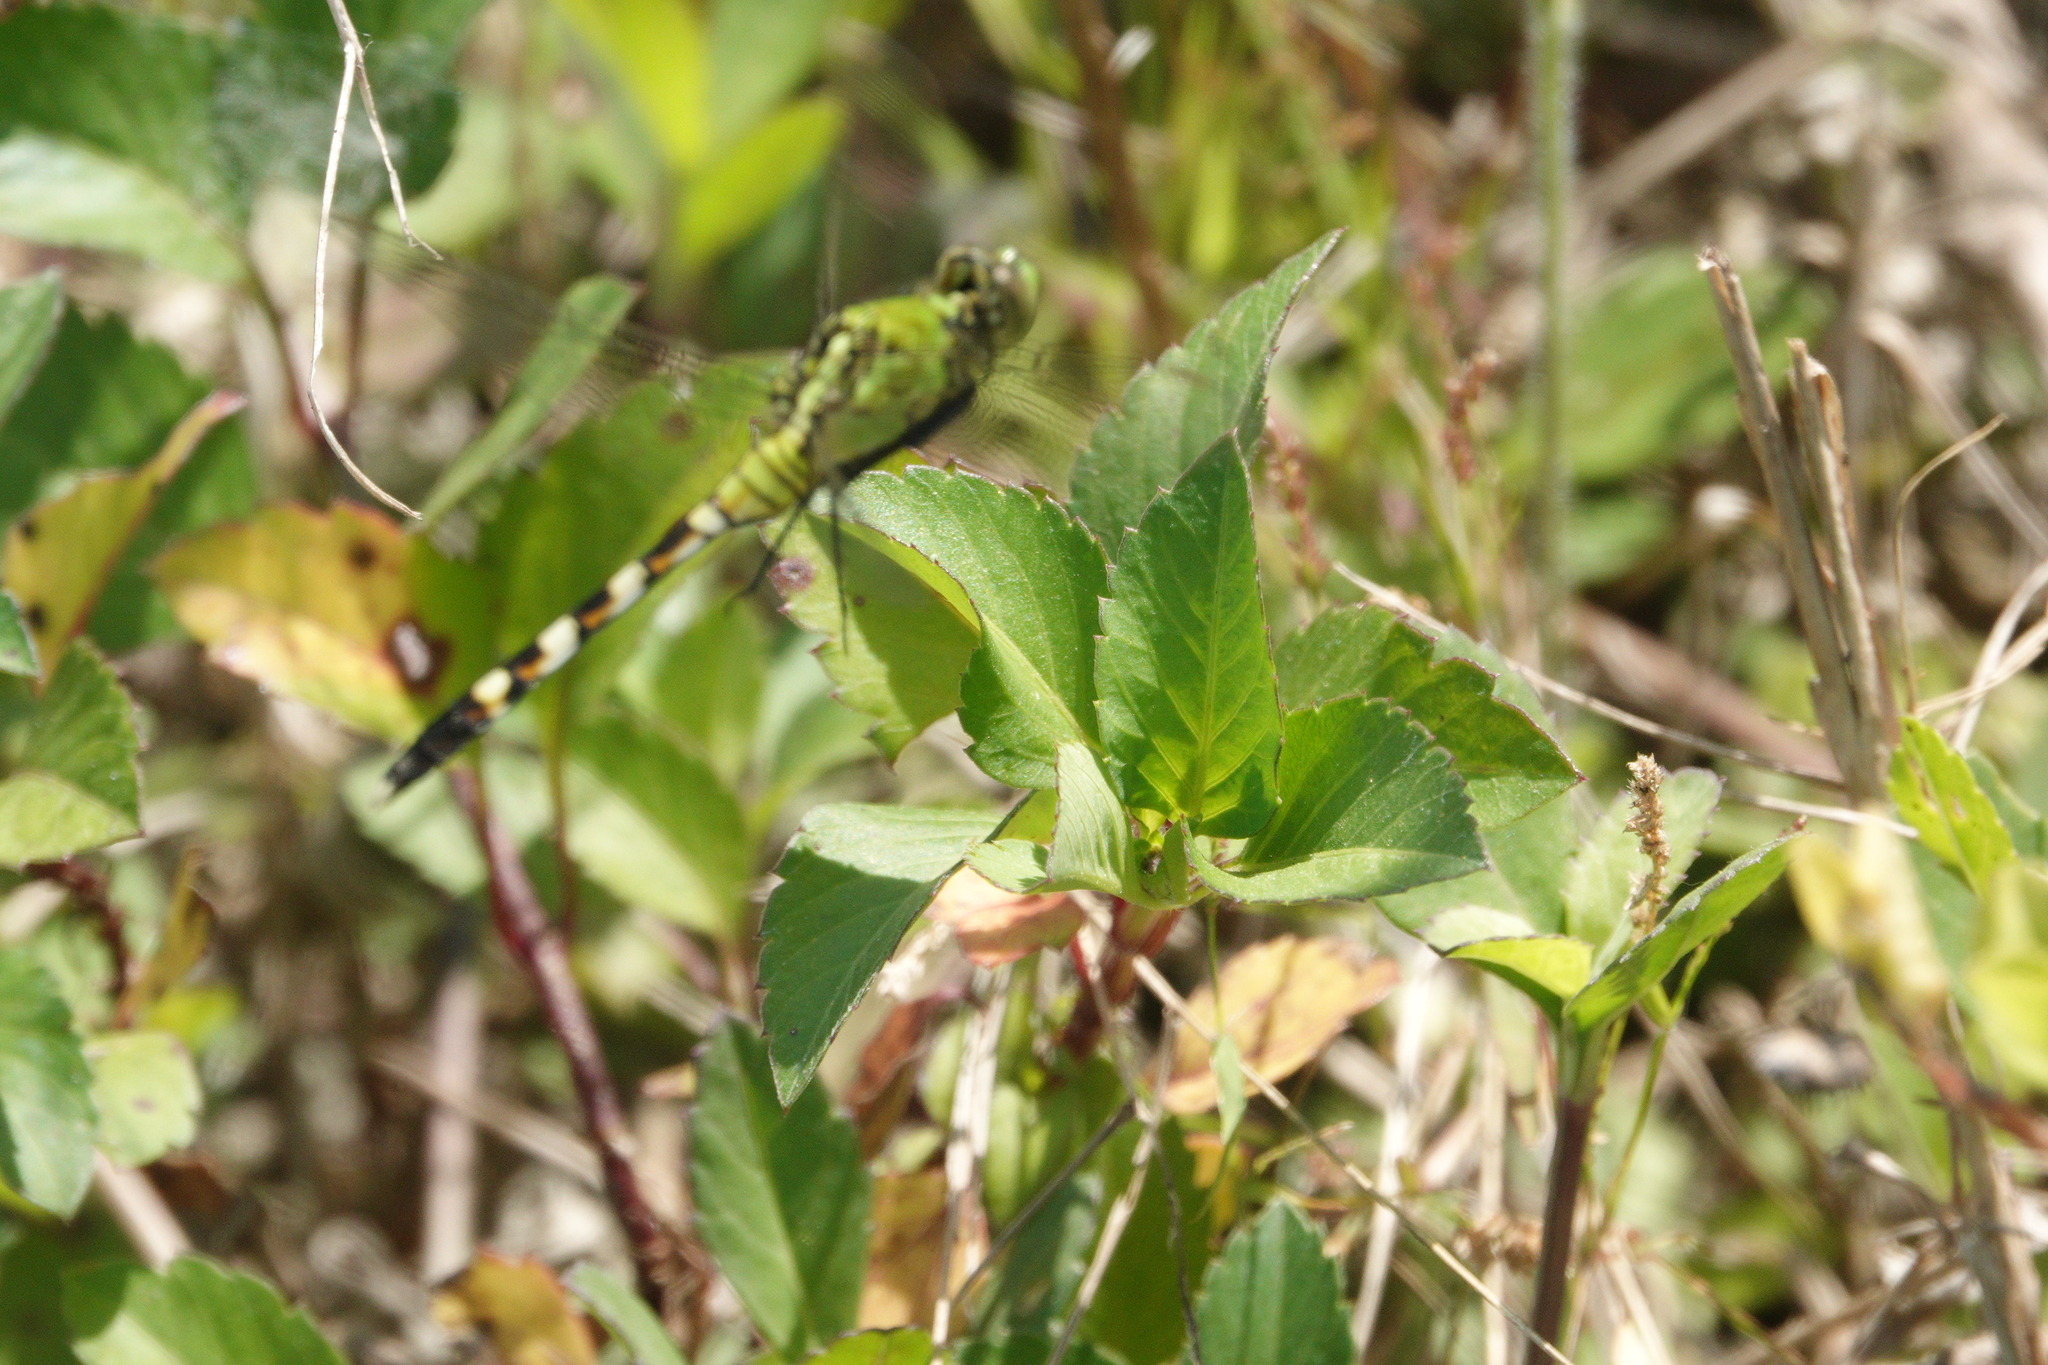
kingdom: Animalia
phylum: Arthropoda
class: Insecta
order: Odonata
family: Libellulidae
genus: Erythemis
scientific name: Erythemis simplicicollis
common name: Eastern pondhawk
